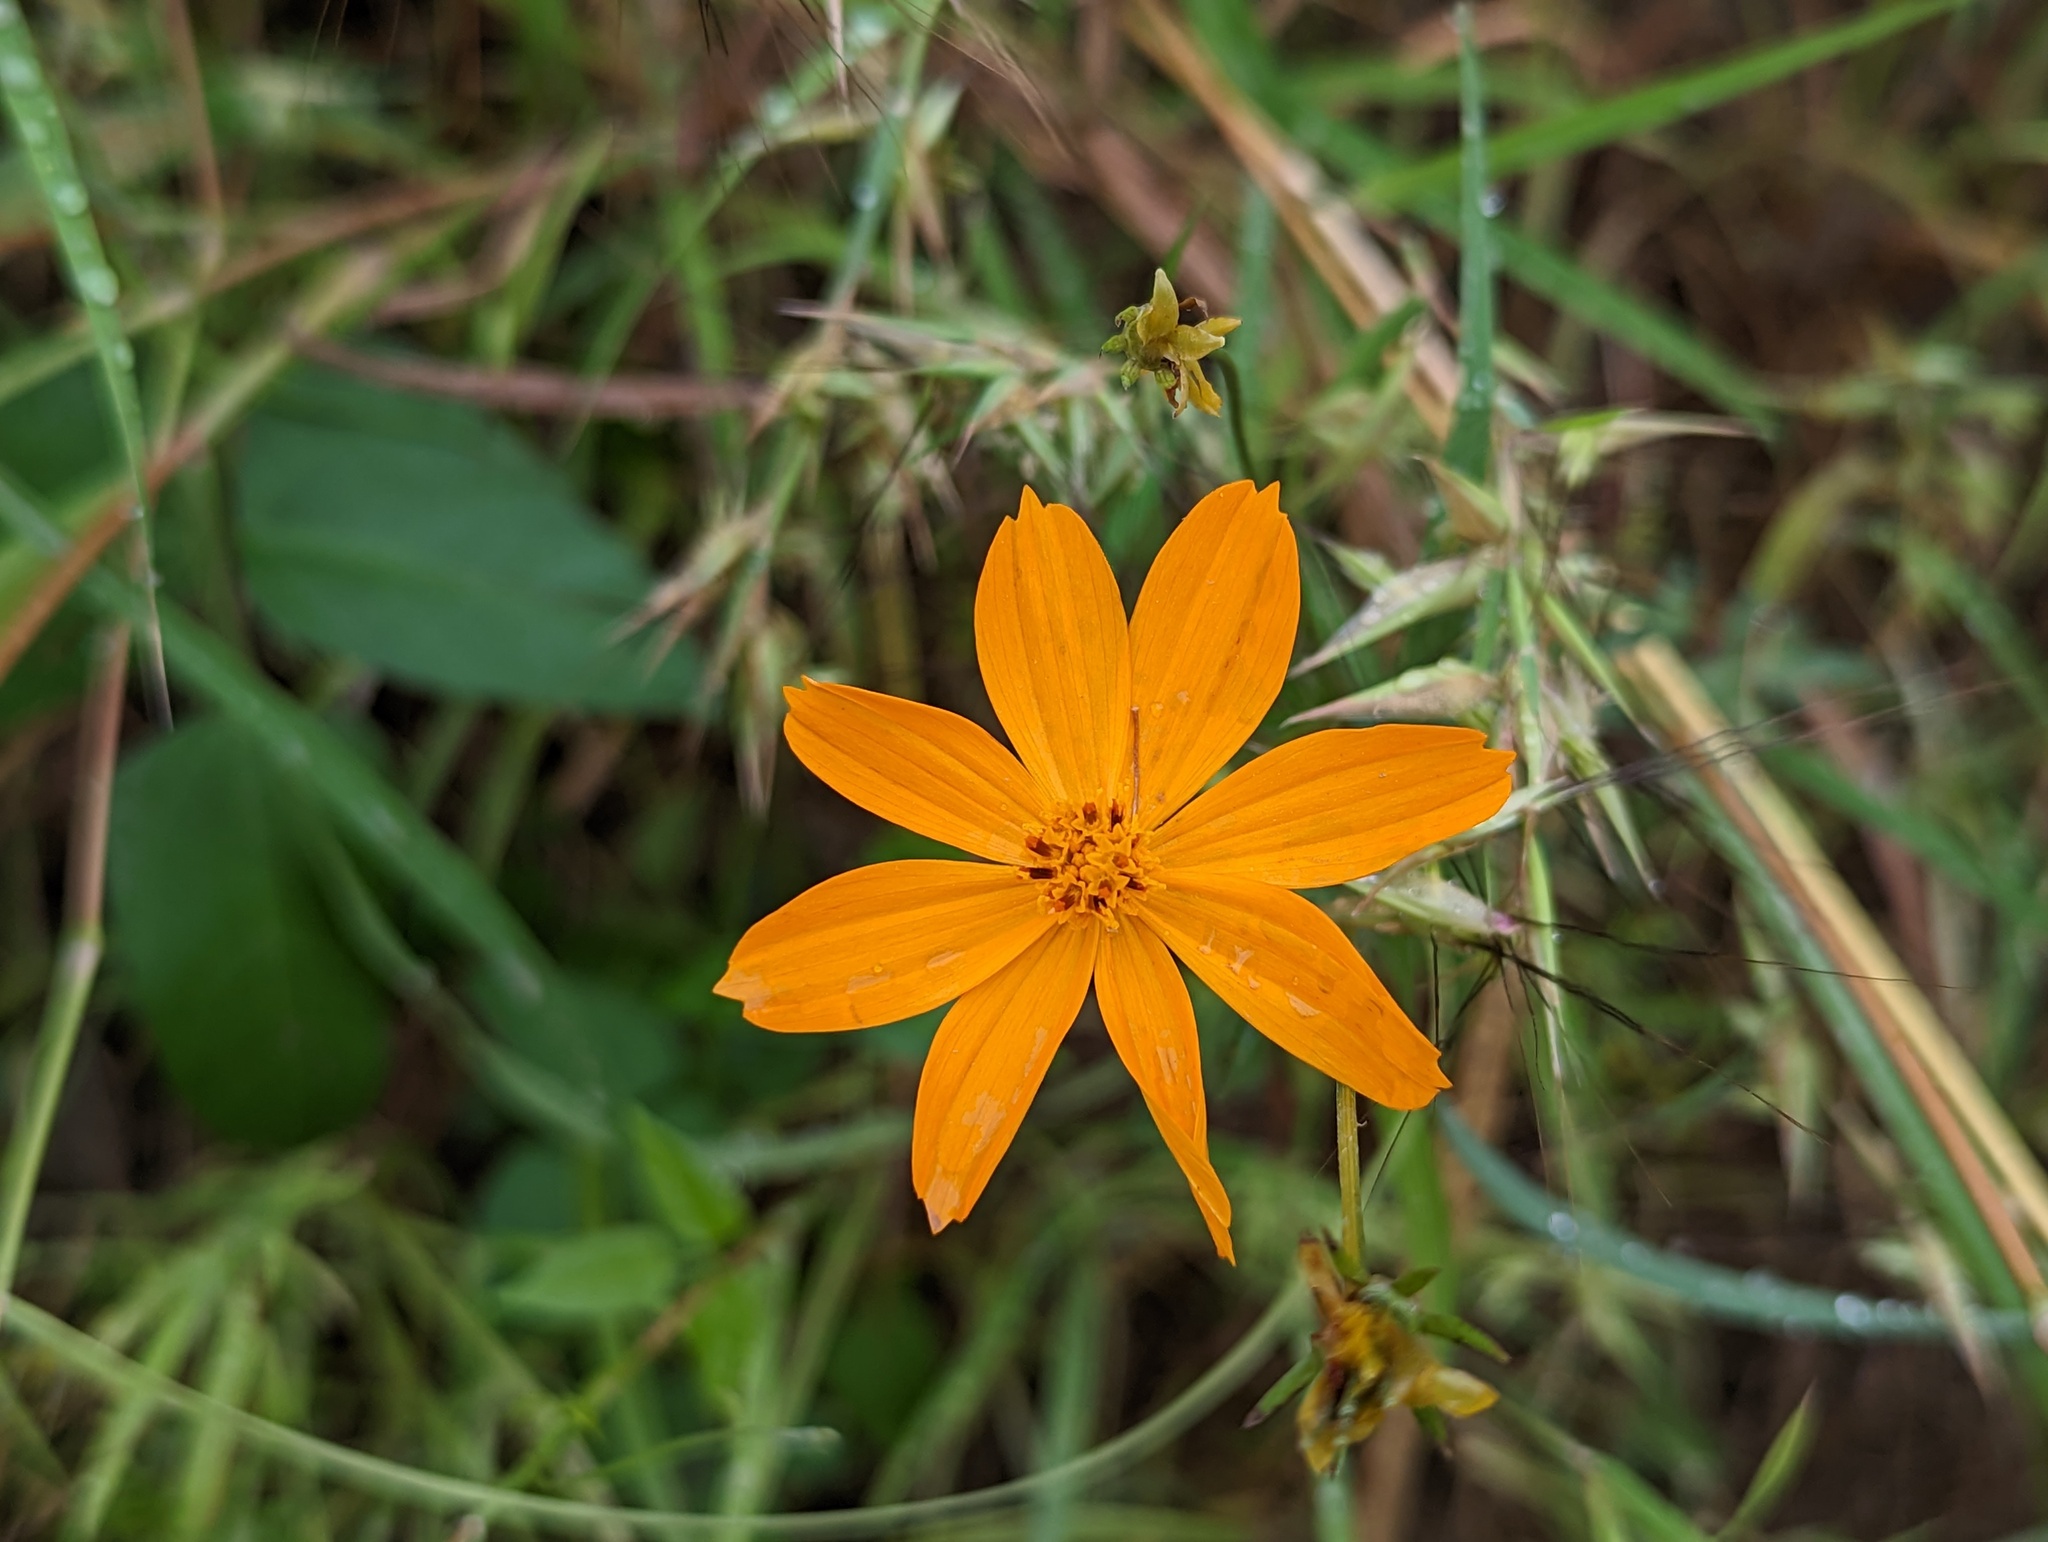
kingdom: Plantae
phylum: Tracheophyta
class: Magnoliopsida
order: Asterales
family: Asteraceae
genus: Cosmos
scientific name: Cosmos sulphureus
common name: Sulphur cosmos
